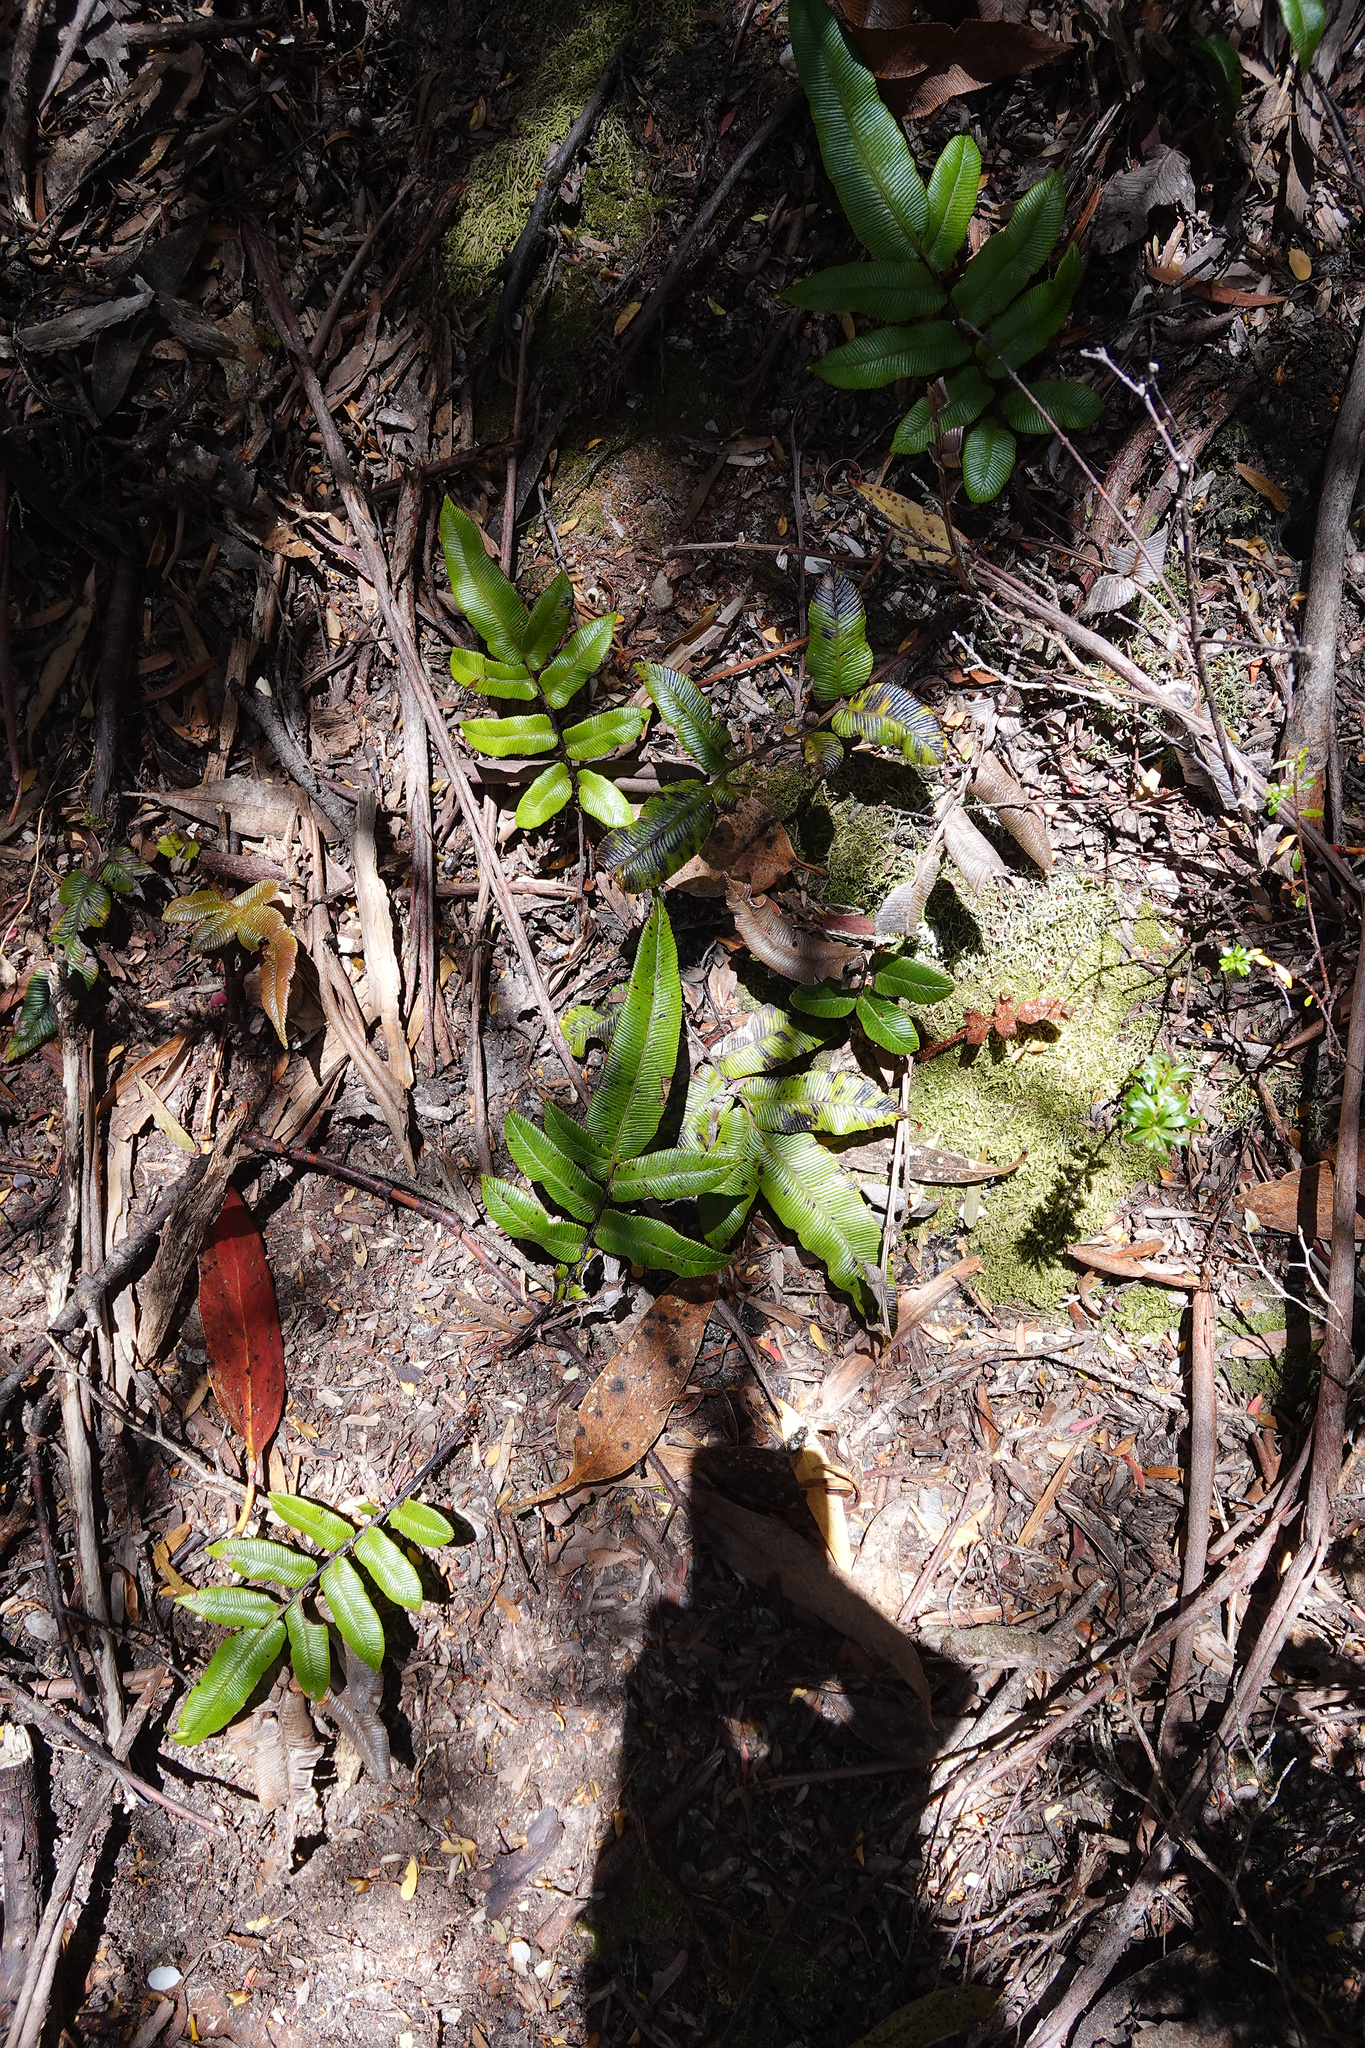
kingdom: Plantae
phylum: Tracheophyta
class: Polypodiopsida
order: Polypodiales
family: Blechnaceae
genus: Parablechnum
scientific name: Parablechnum wattsii
